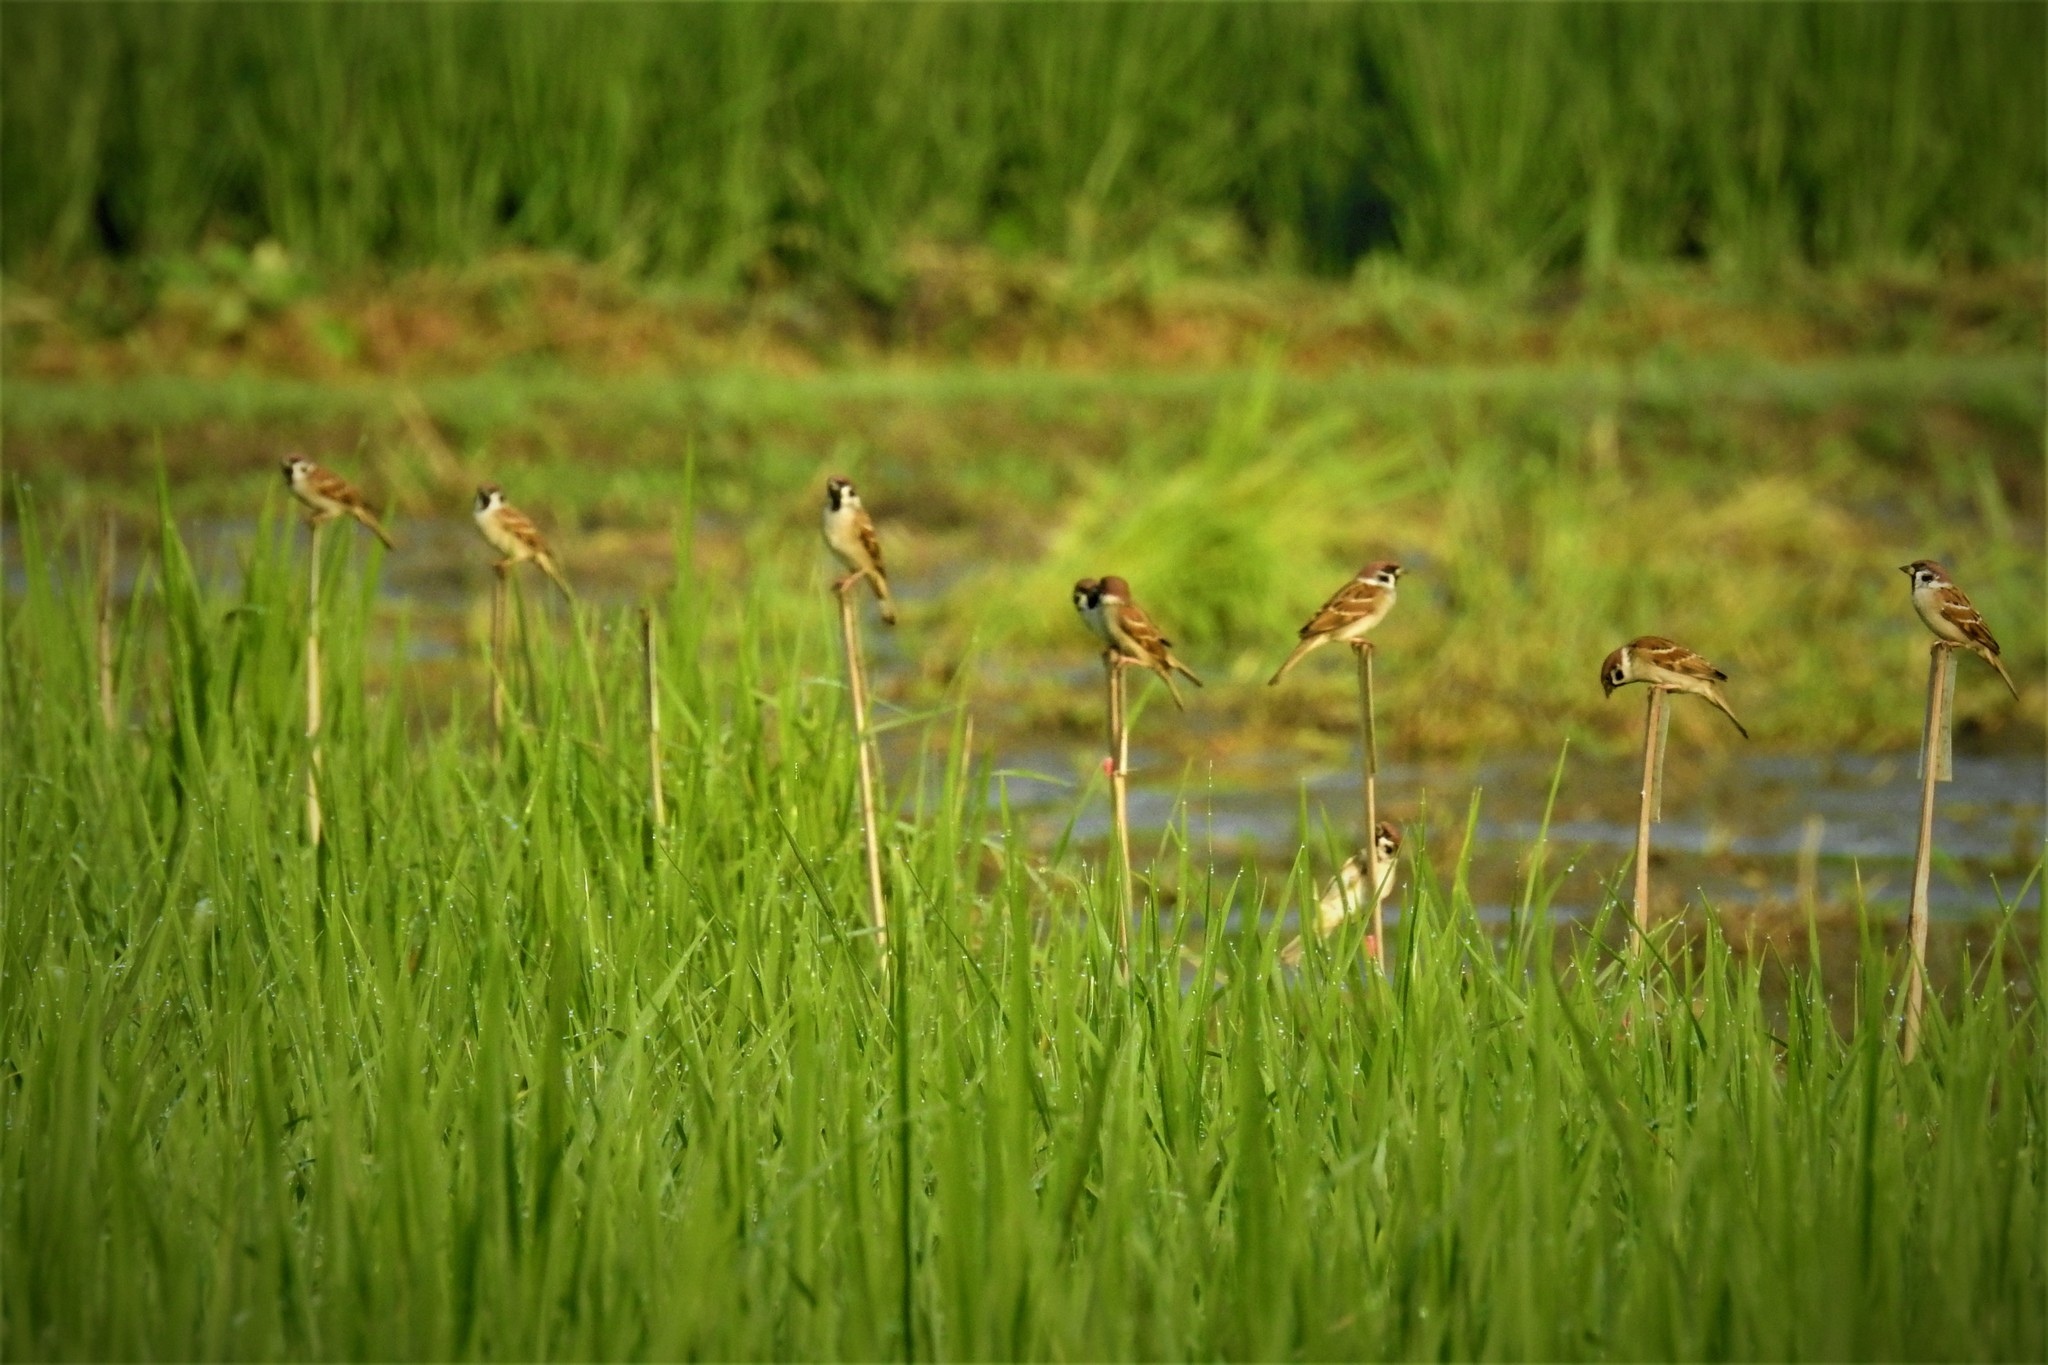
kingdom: Animalia
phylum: Chordata
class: Aves
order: Passeriformes
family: Passeridae
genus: Passer
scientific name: Passer montanus
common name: Eurasian tree sparrow
